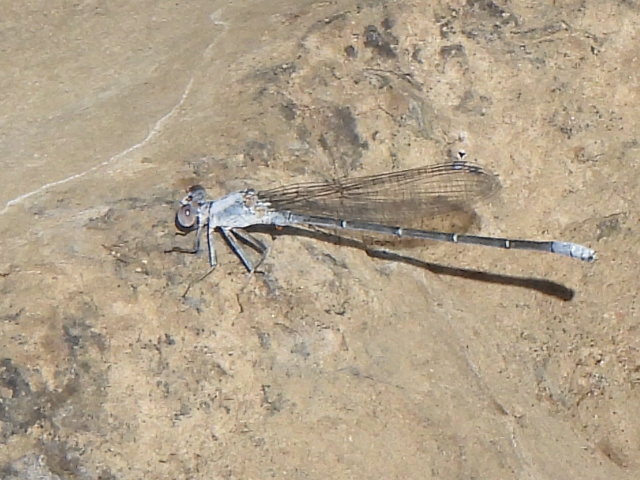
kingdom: Animalia
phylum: Arthropoda
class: Insecta
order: Odonata
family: Coenagrionidae
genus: Argia
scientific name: Argia moesta
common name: Powdered dancer
